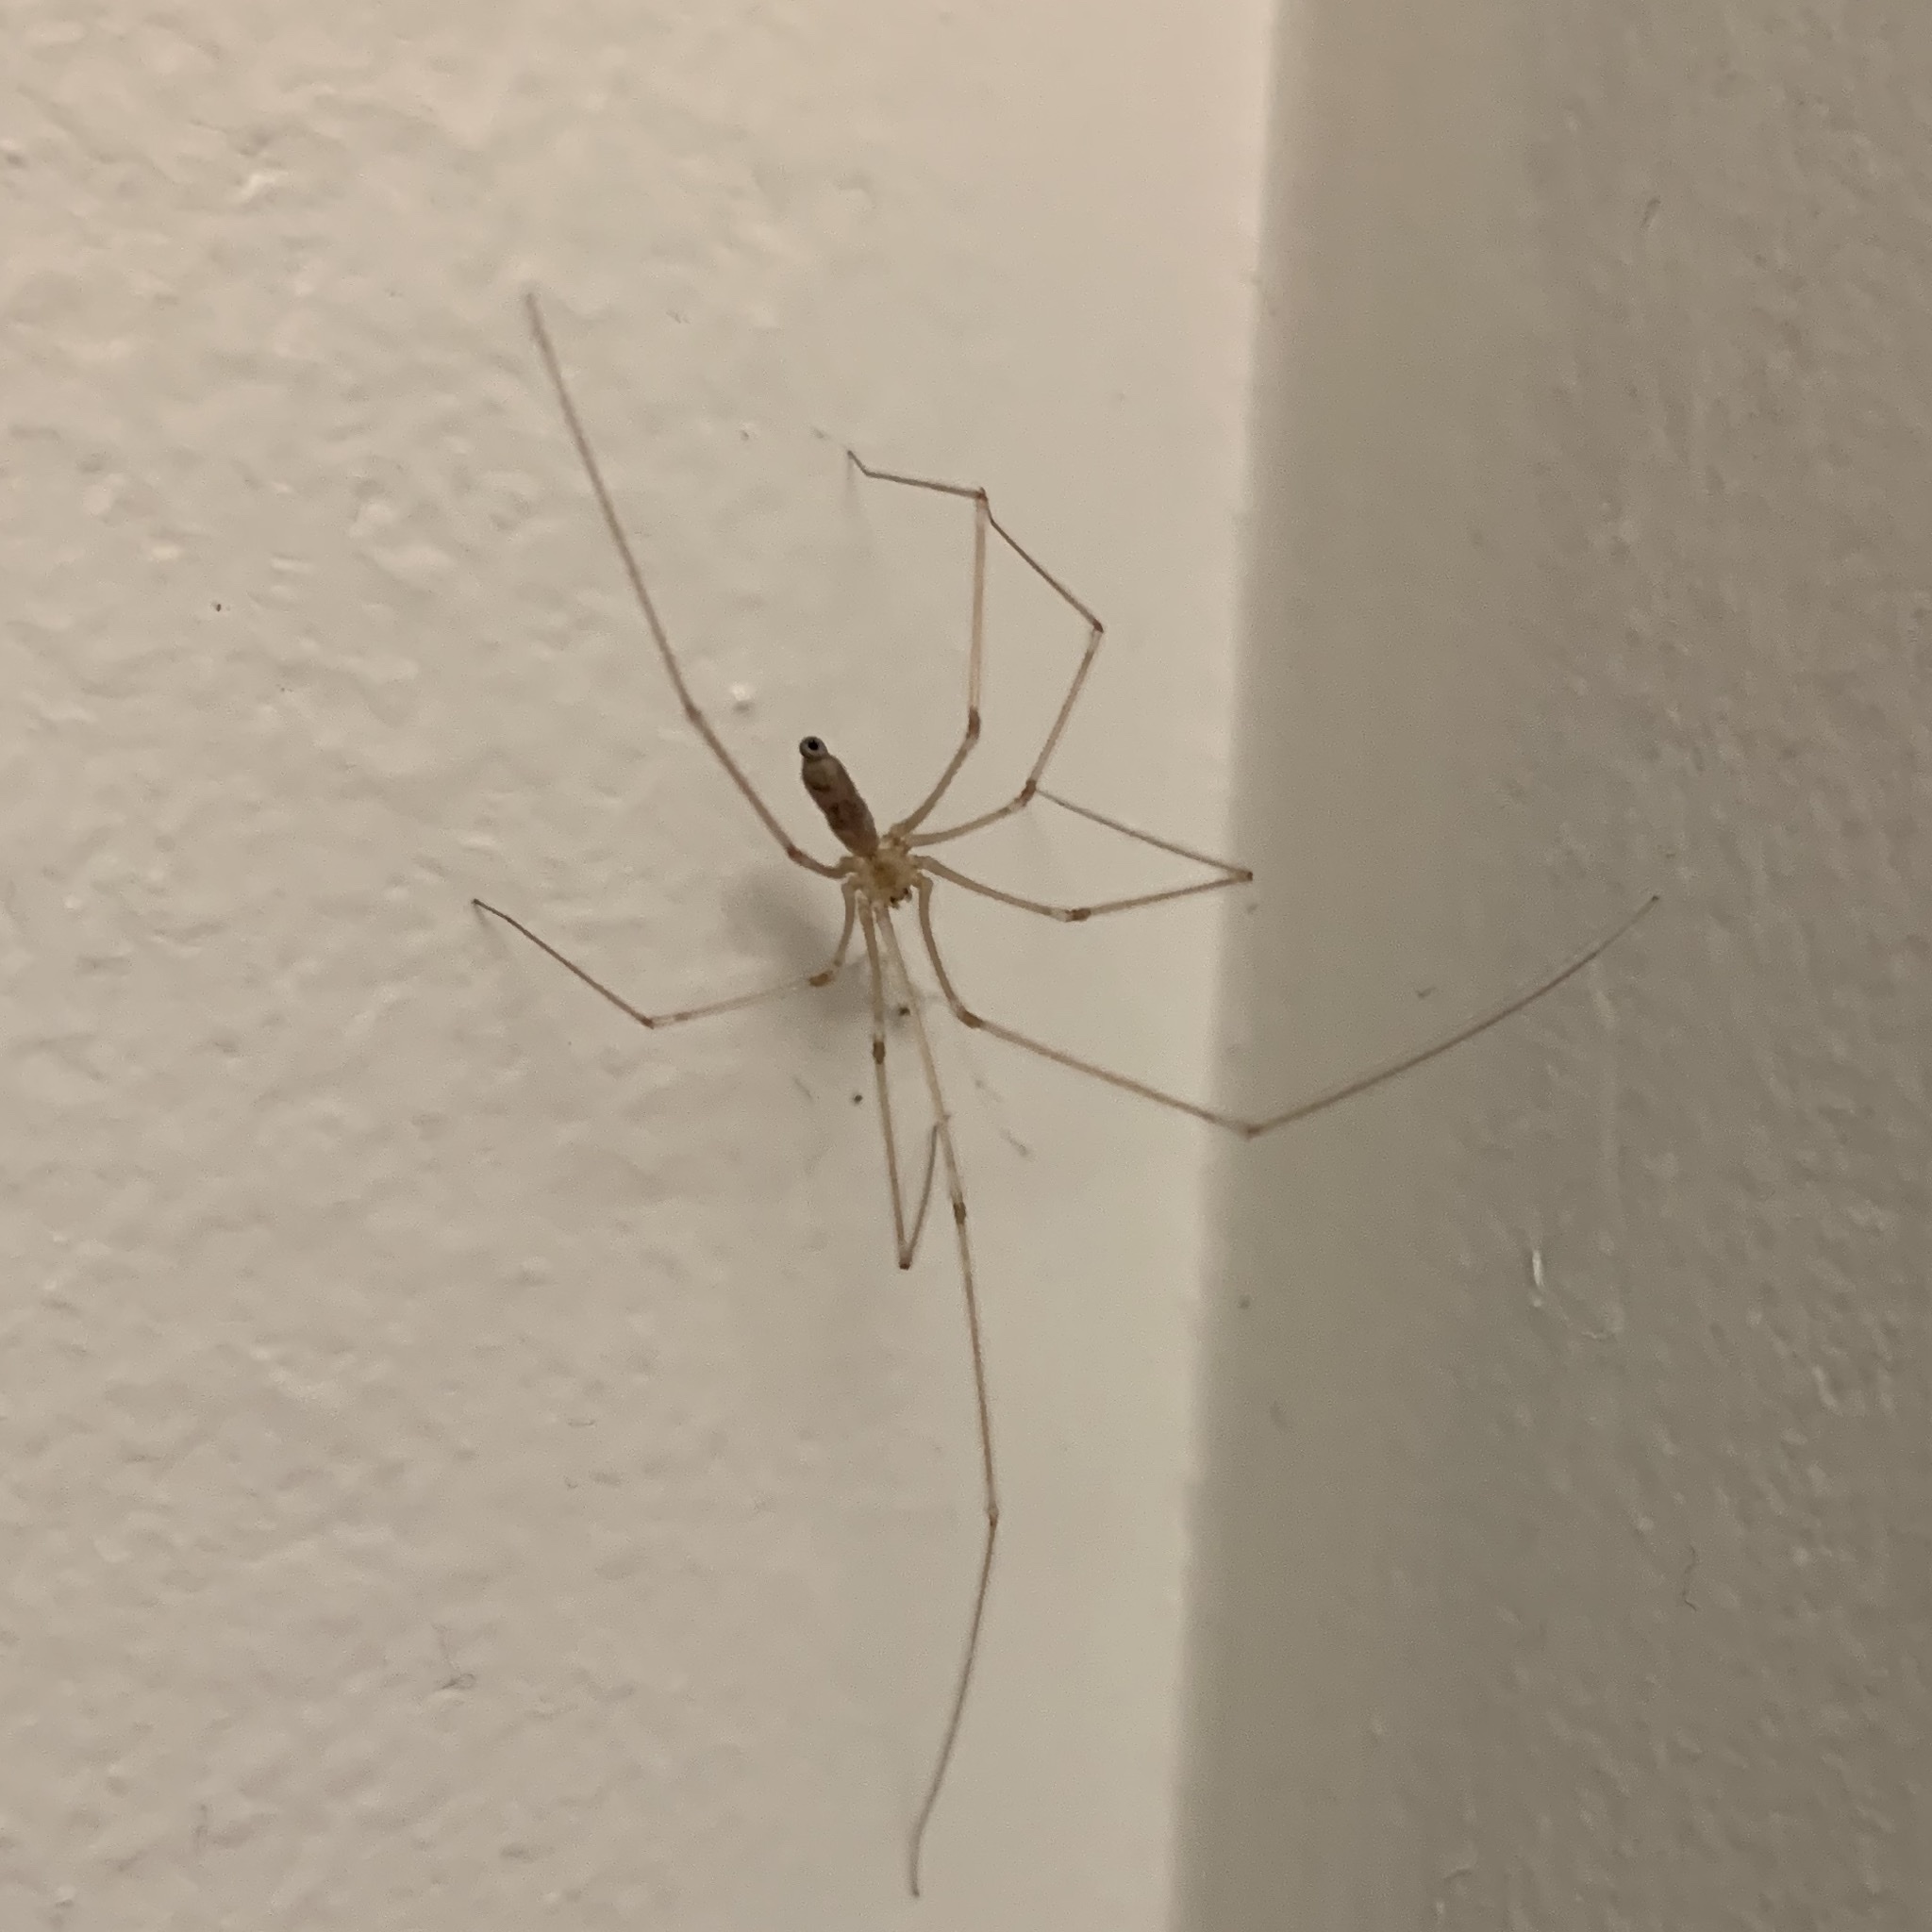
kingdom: Animalia
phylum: Arthropoda
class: Arachnida
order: Araneae
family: Pholcidae
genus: Pholcus
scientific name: Pholcus phalangioides
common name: Longbodied cellar spider
